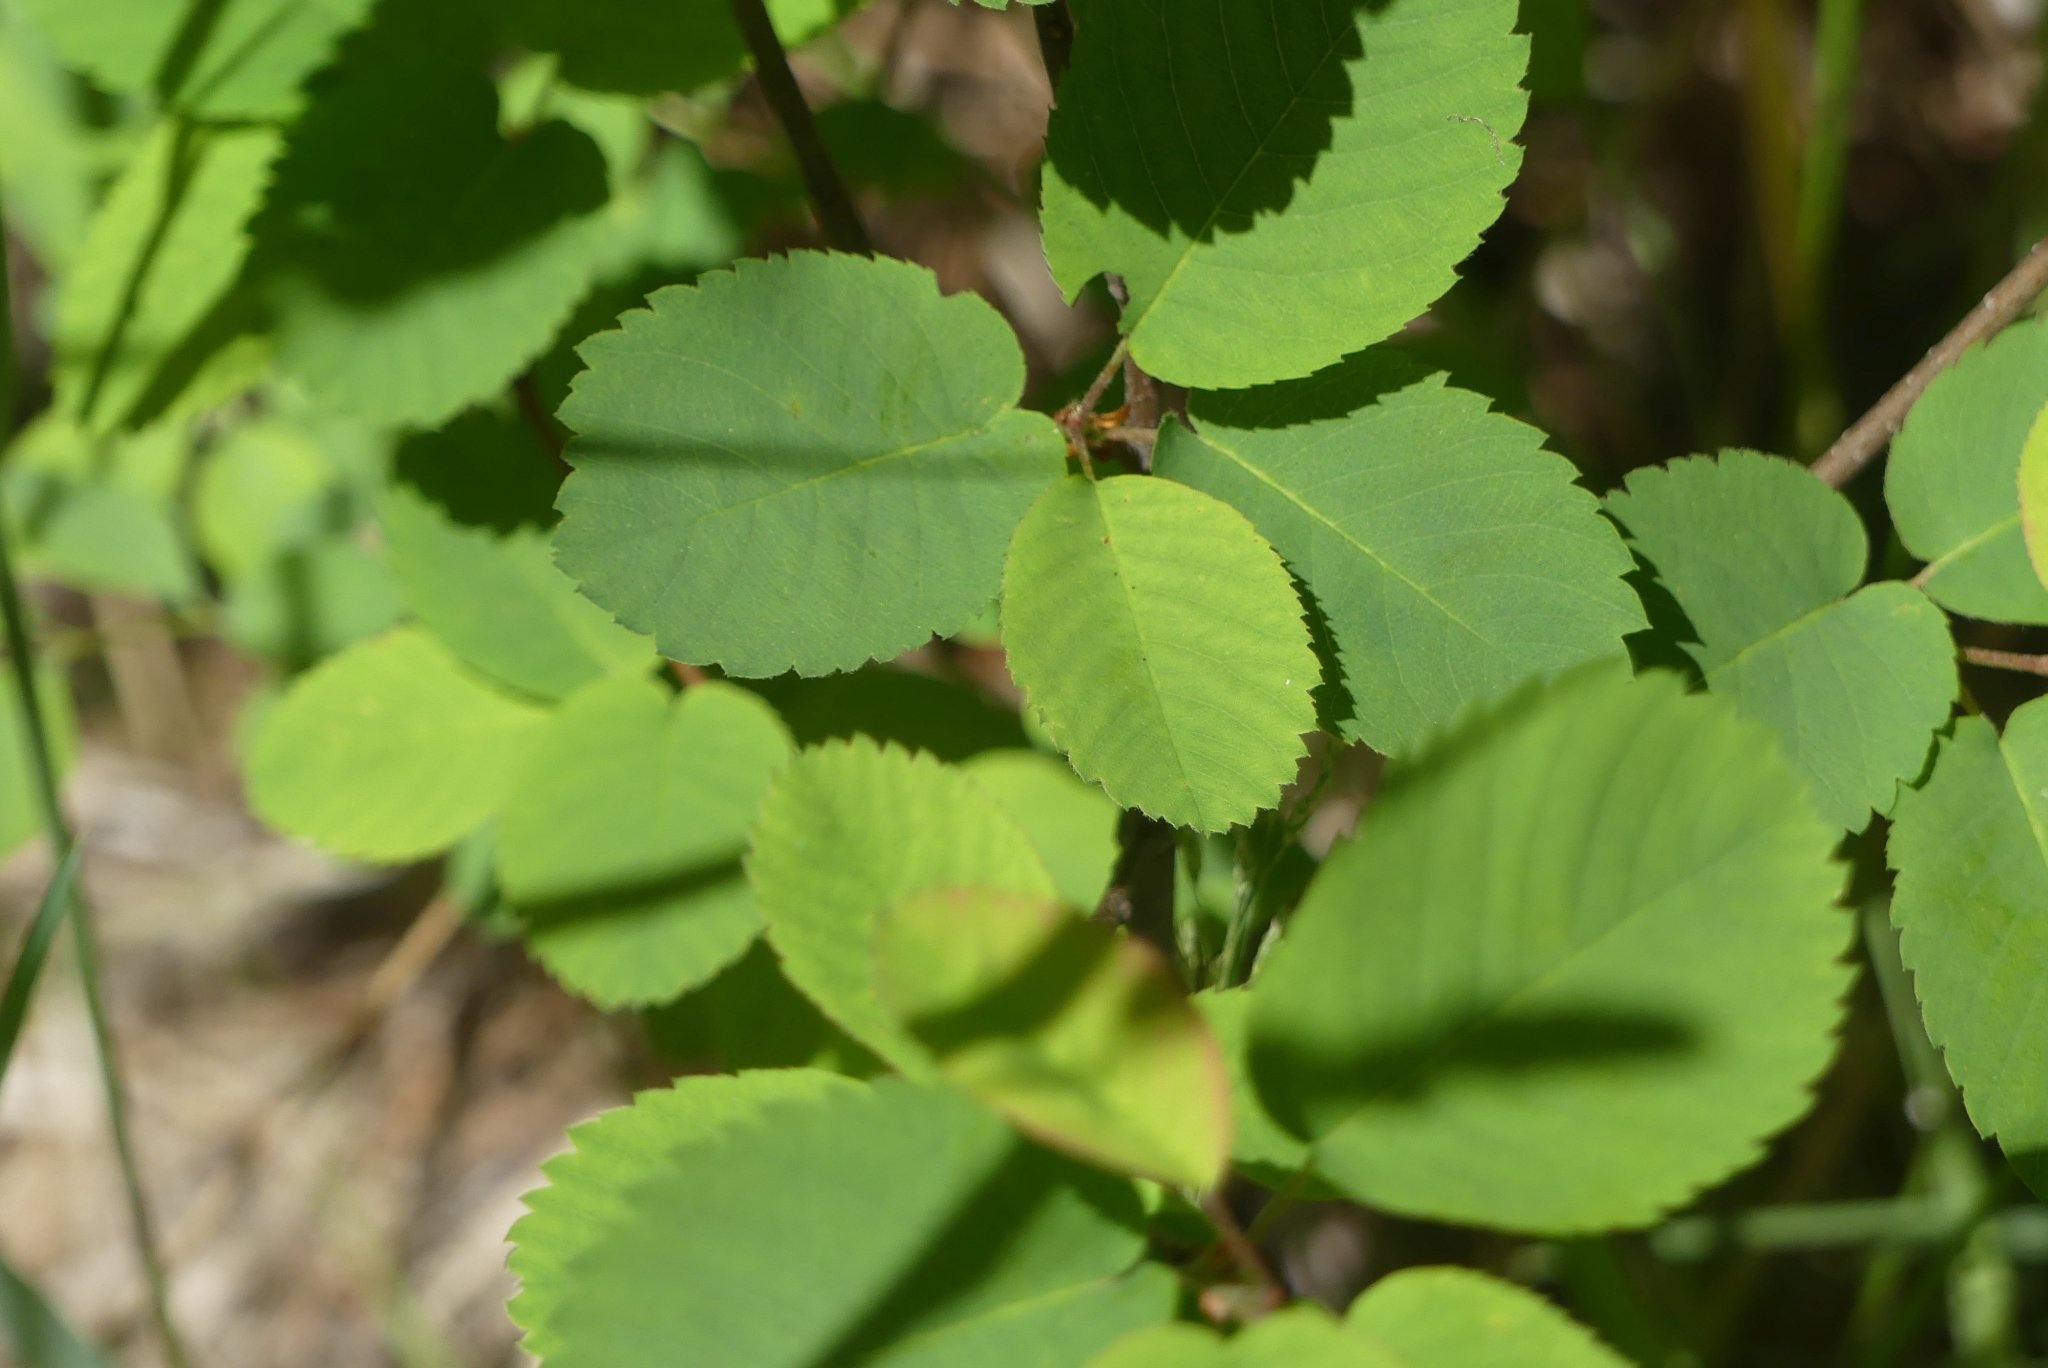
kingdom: Plantae
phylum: Tracheophyta
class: Magnoliopsida
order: Rosales
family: Rosaceae
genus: Amelanchier
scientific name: Amelanchier alnifolia
